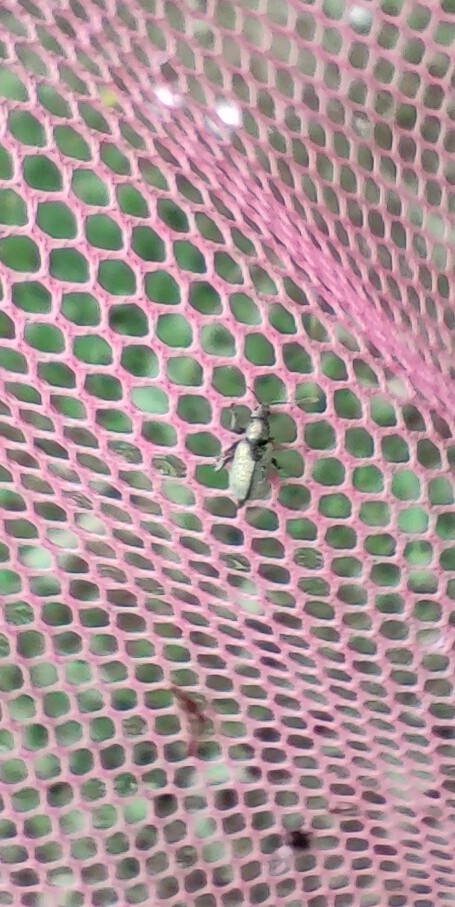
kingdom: Animalia
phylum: Arthropoda
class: Insecta
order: Coleoptera
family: Curculionidae
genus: Phyllobius
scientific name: Phyllobius argentatus
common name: Silver-green leaf weevil
